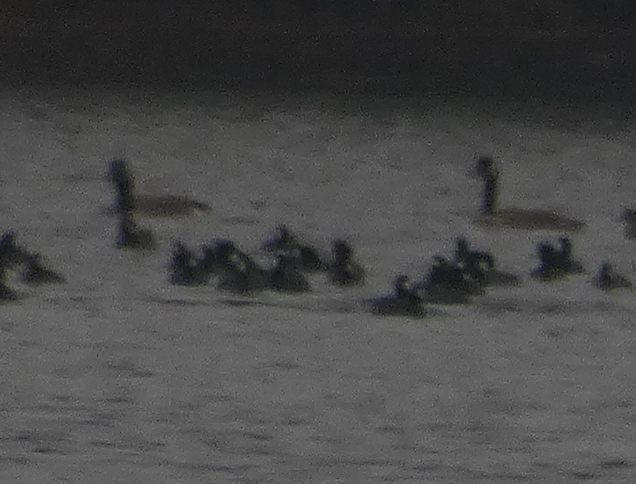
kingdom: Animalia
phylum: Chordata
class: Aves
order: Gruiformes
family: Rallidae
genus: Fulica
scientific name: Fulica americana
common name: American coot
